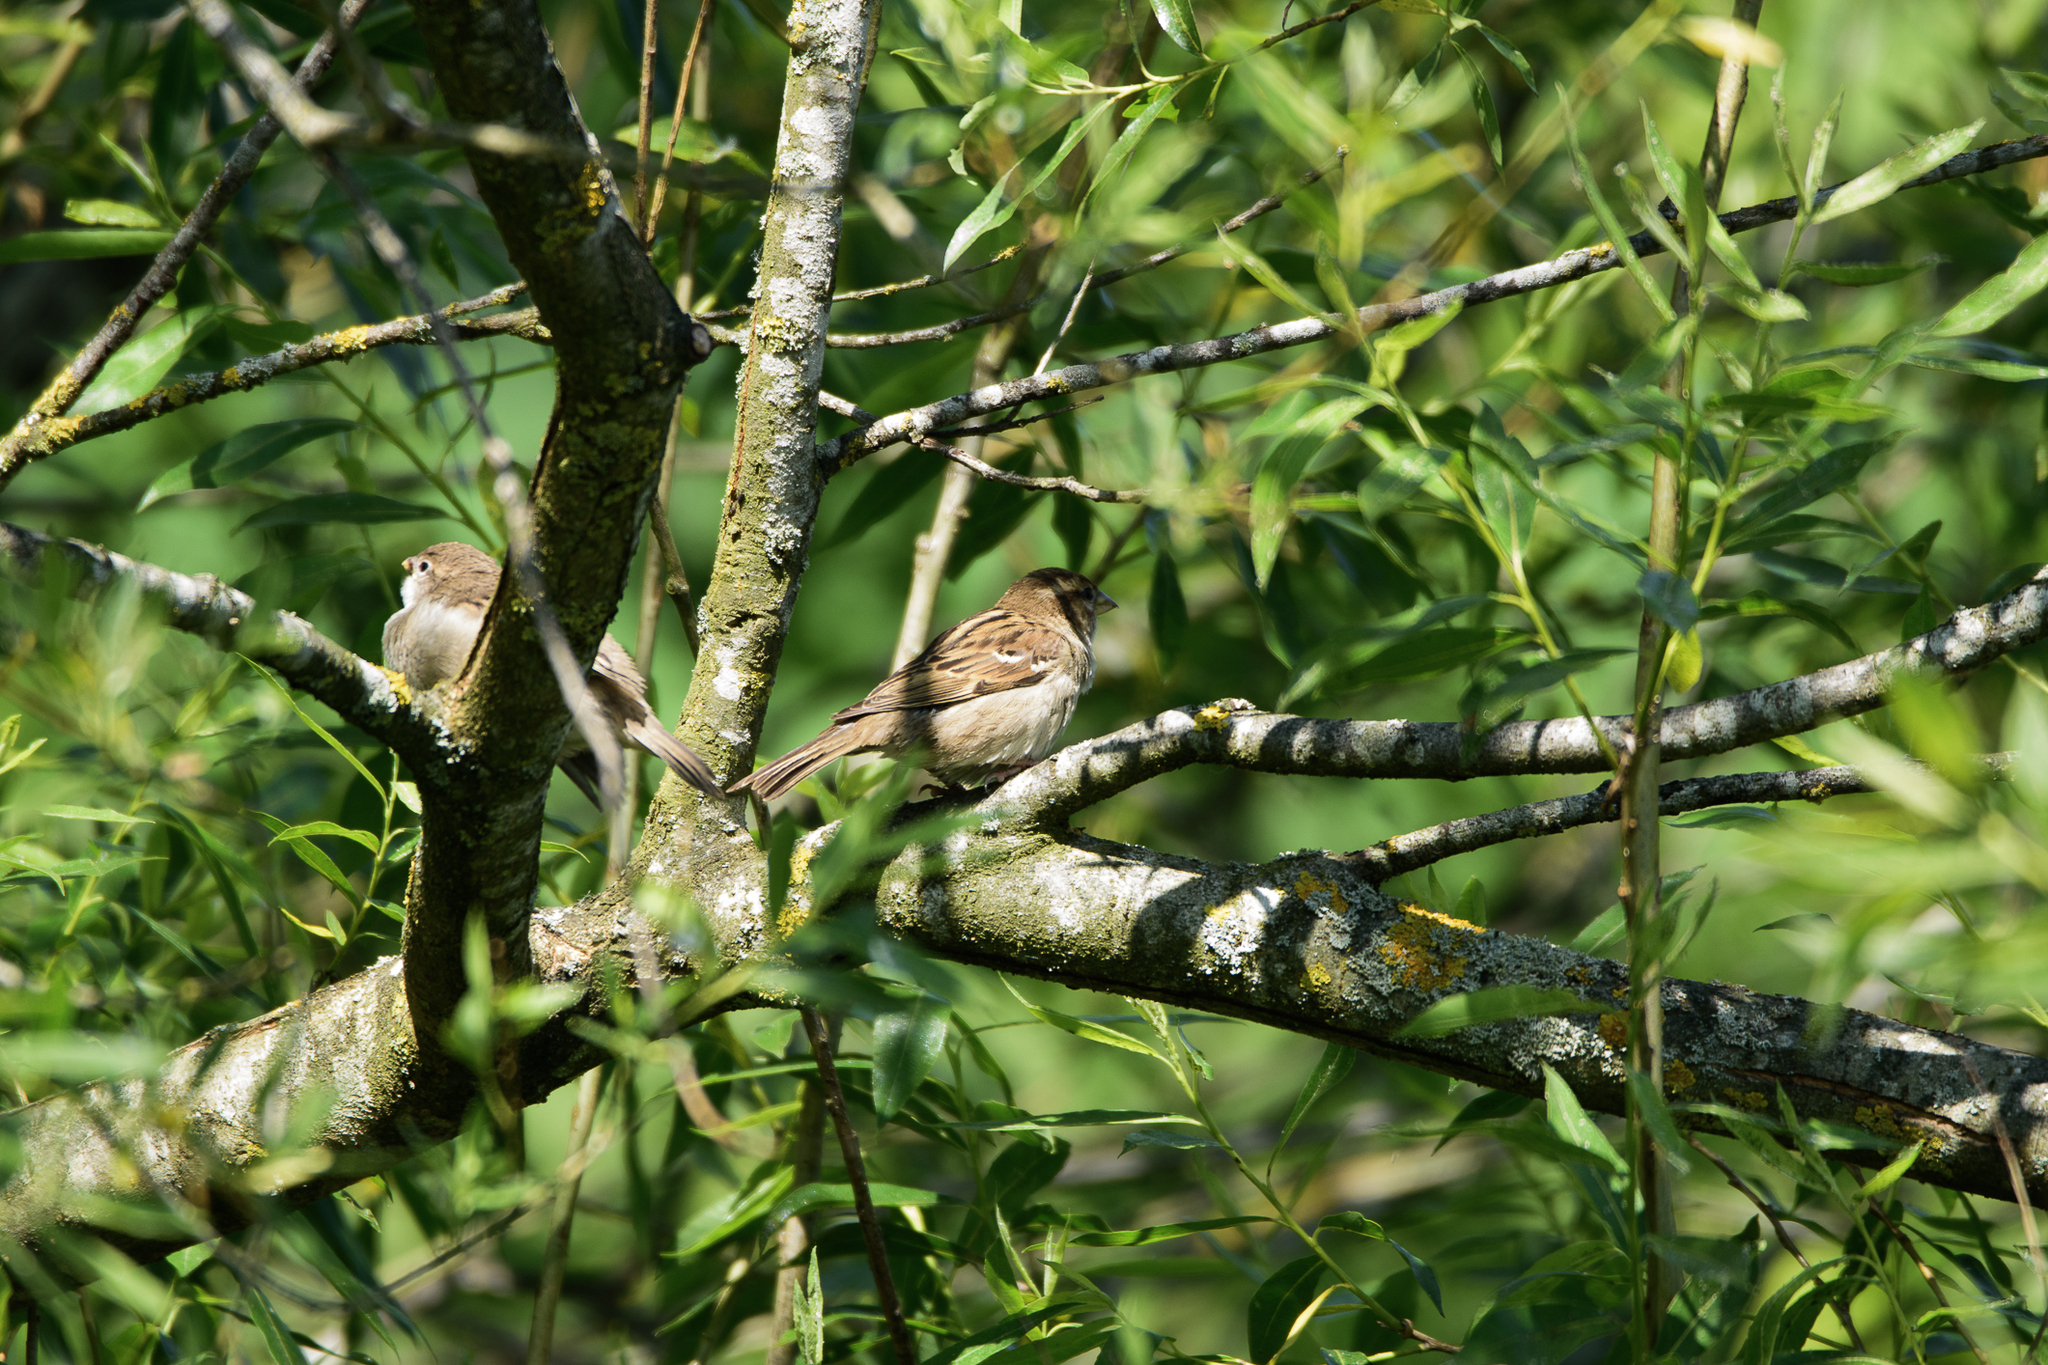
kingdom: Animalia
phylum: Chordata
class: Aves
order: Passeriformes
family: Passeridae
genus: Passer
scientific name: Passer domesticus
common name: House sparrow
